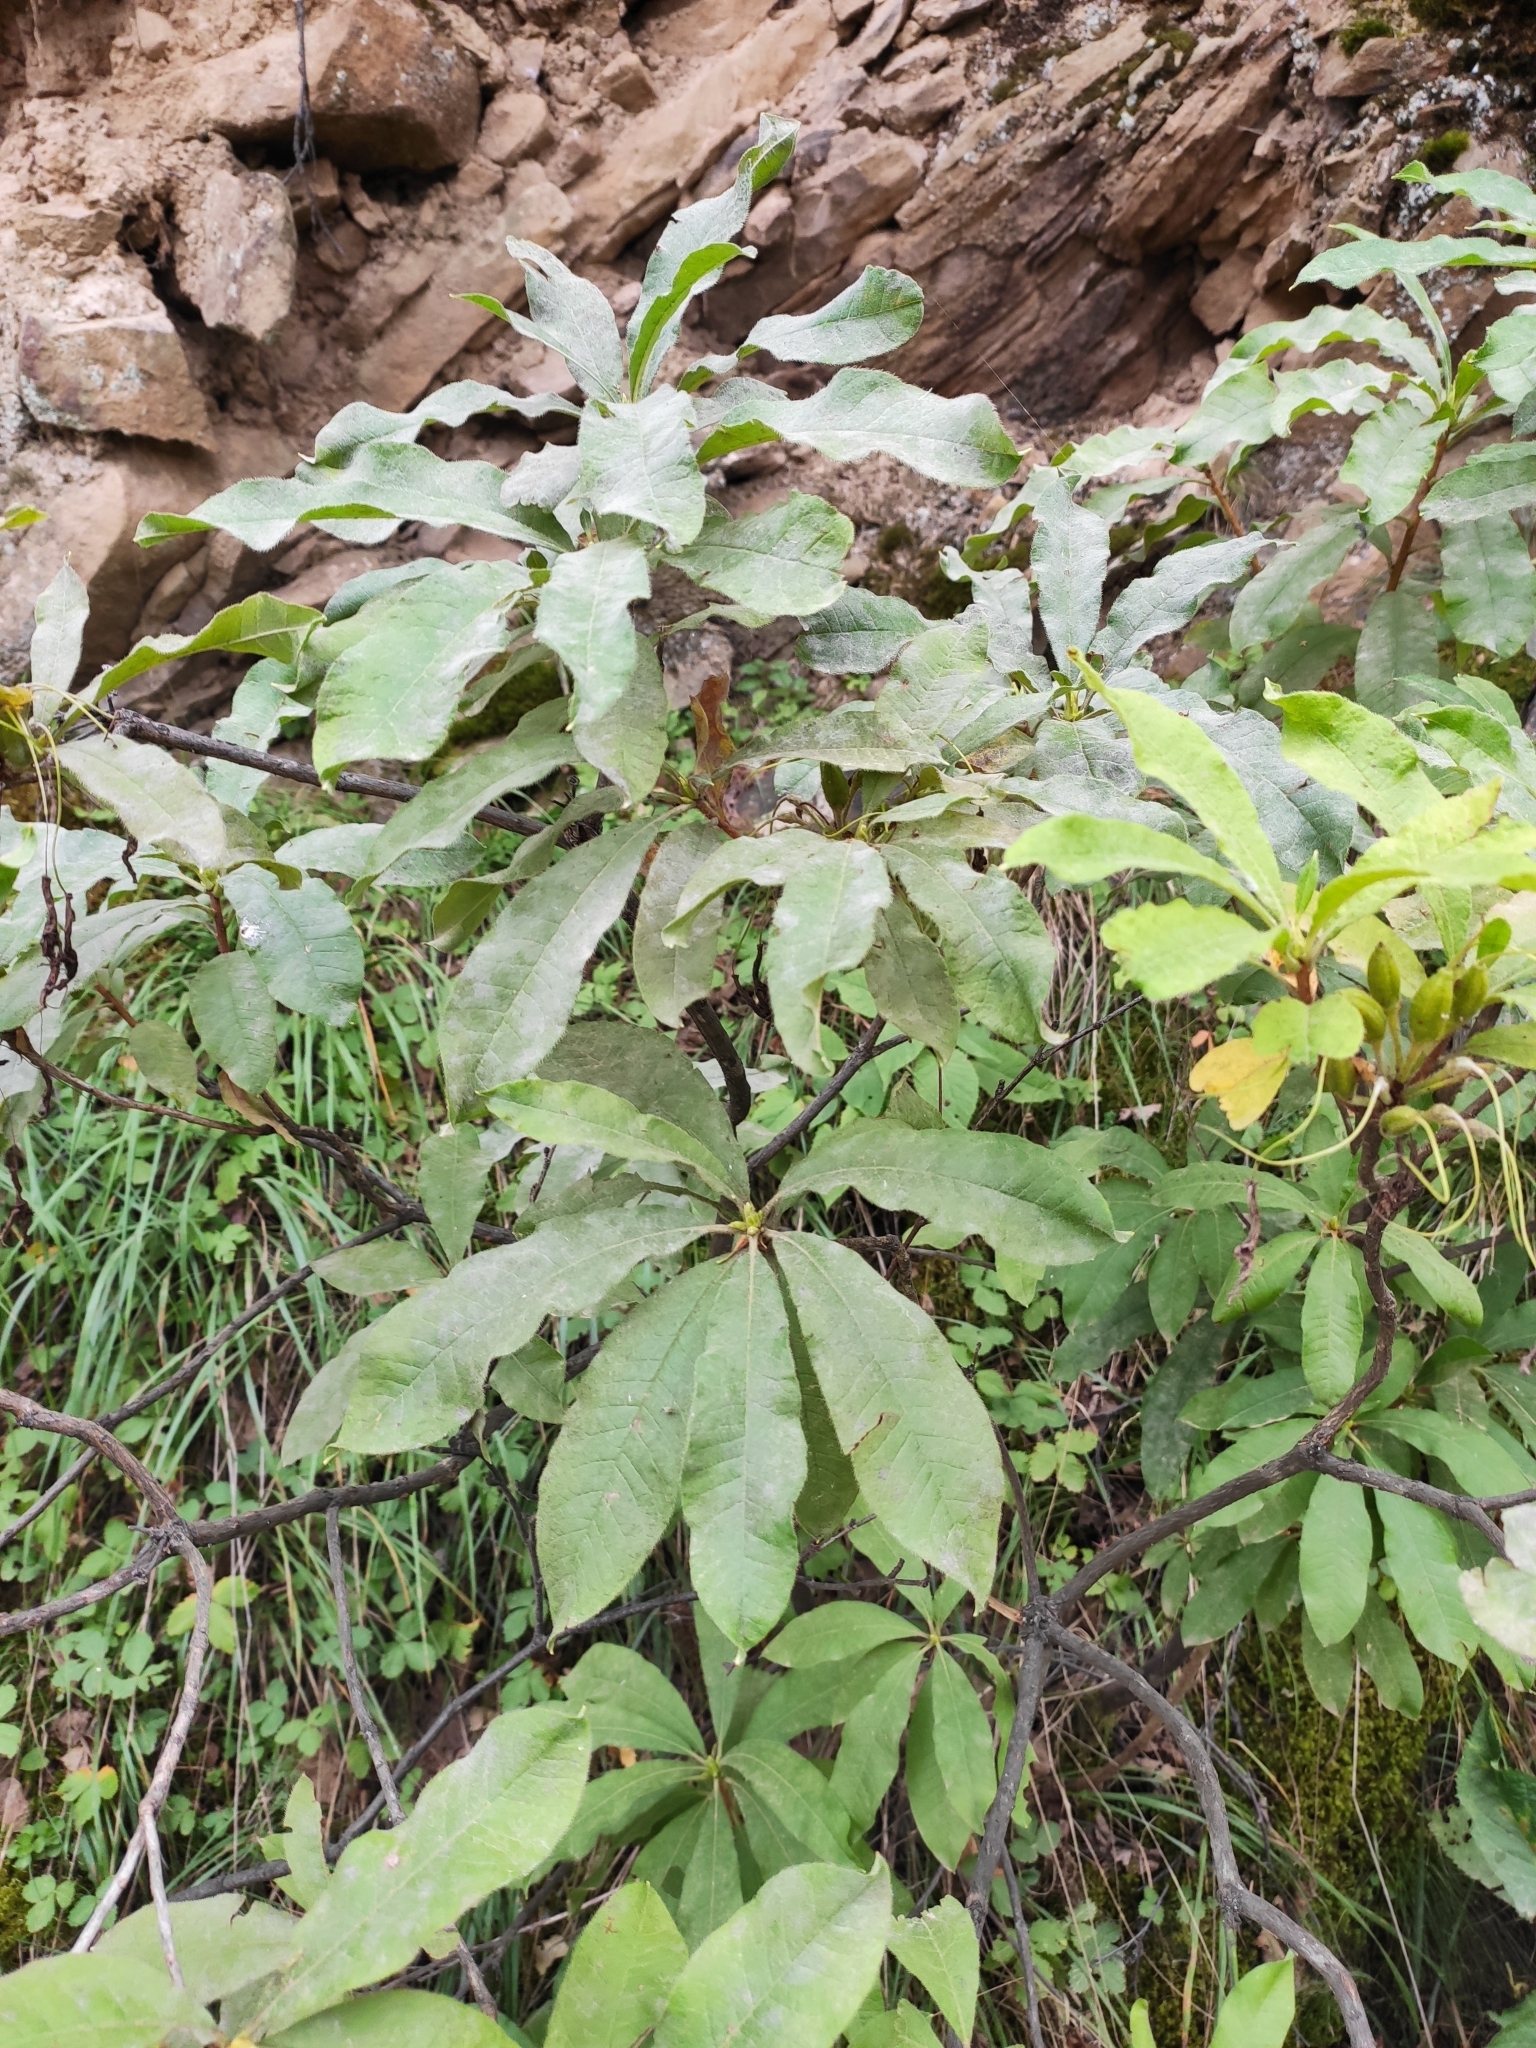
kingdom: Plantae
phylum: Tracheophyta
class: Magnoliopsida
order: Ericales
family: Ericaceae
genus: Rhododendron
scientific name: Rhododendron luteum
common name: Yellow azalea
